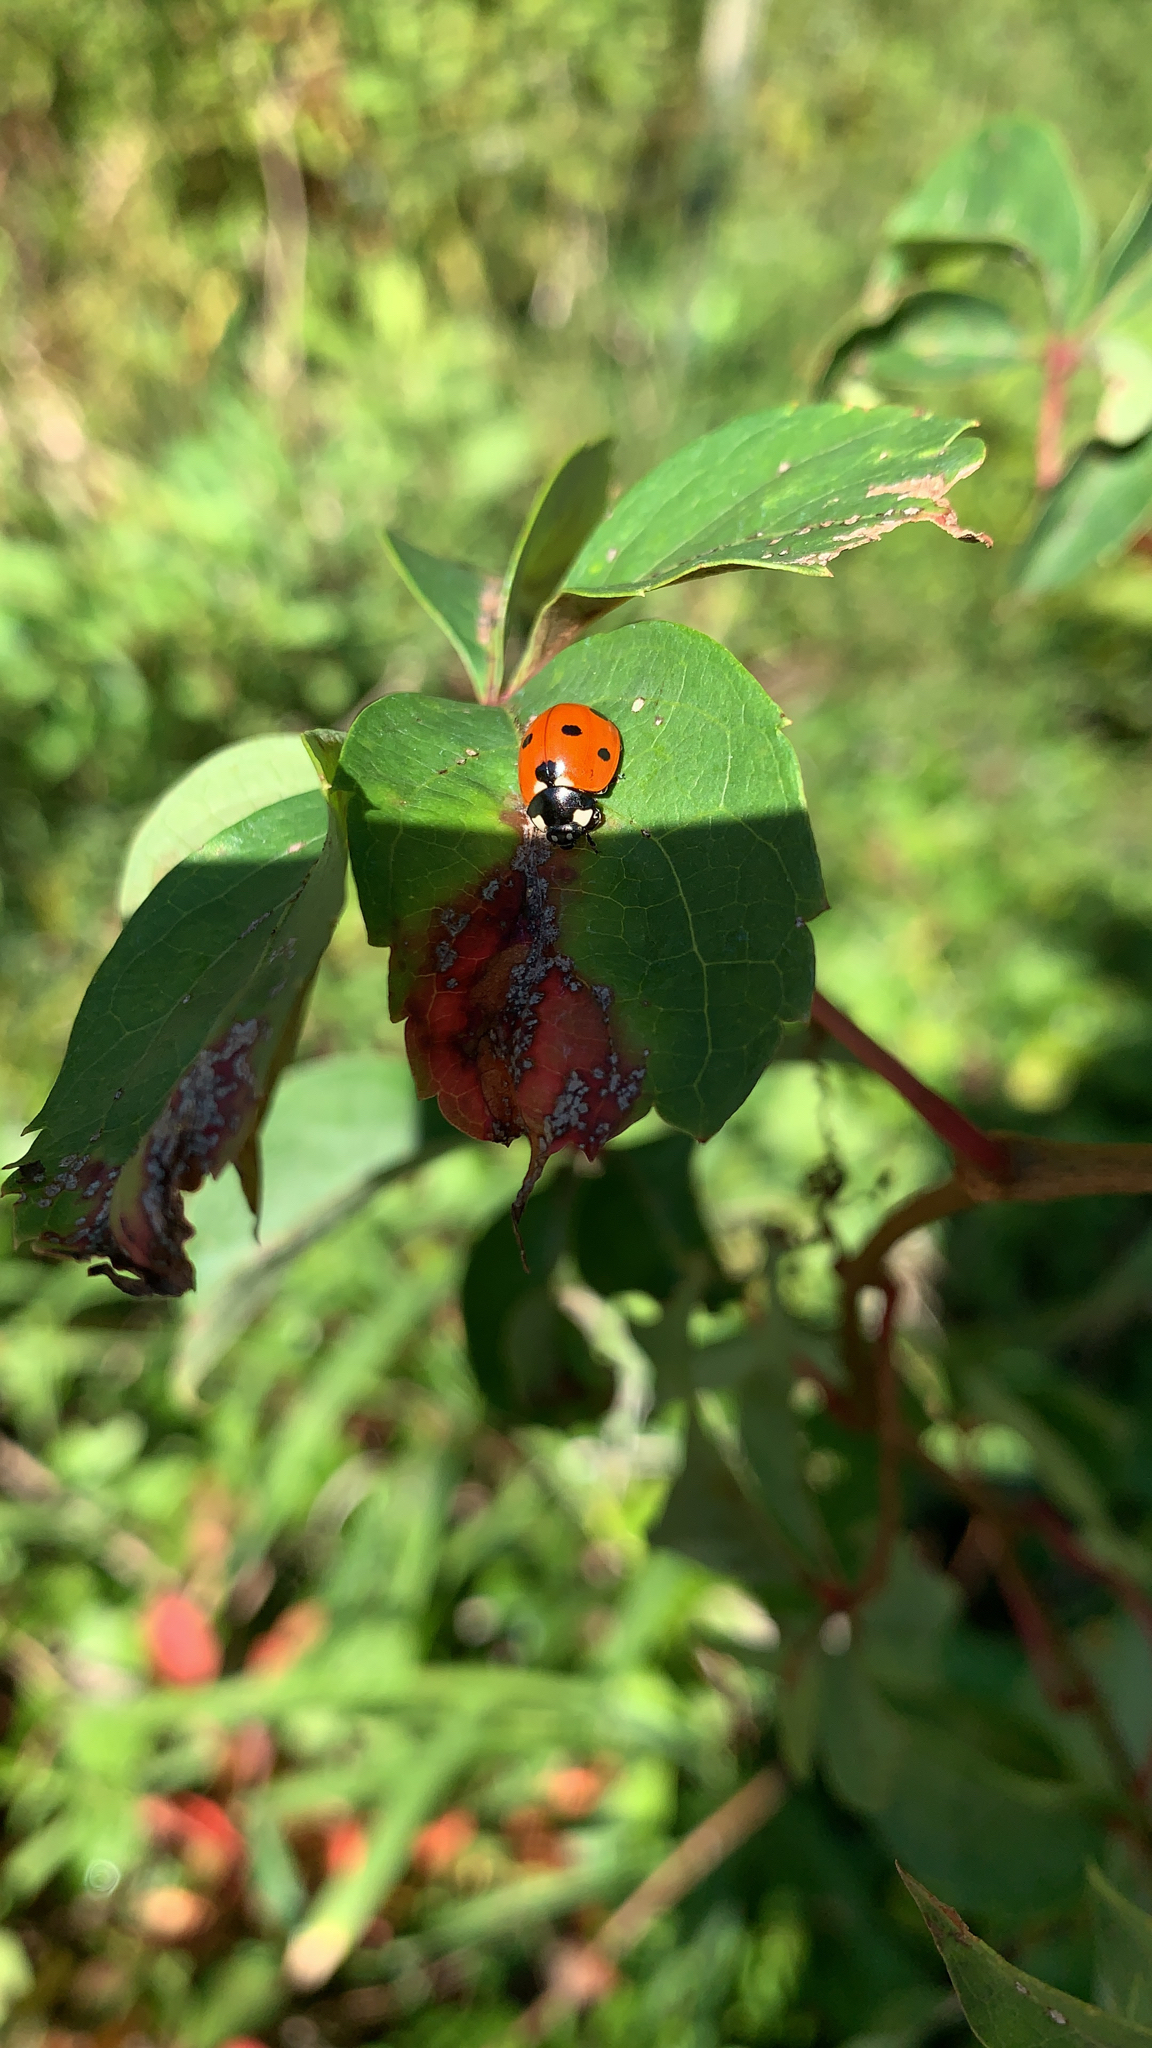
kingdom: Animalia
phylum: Arthropoda
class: Insecta
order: Coleoptera
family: Coccinellidae
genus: Coccinella
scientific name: Coccinella septempunctata
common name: Sevenspotted lady beetle
